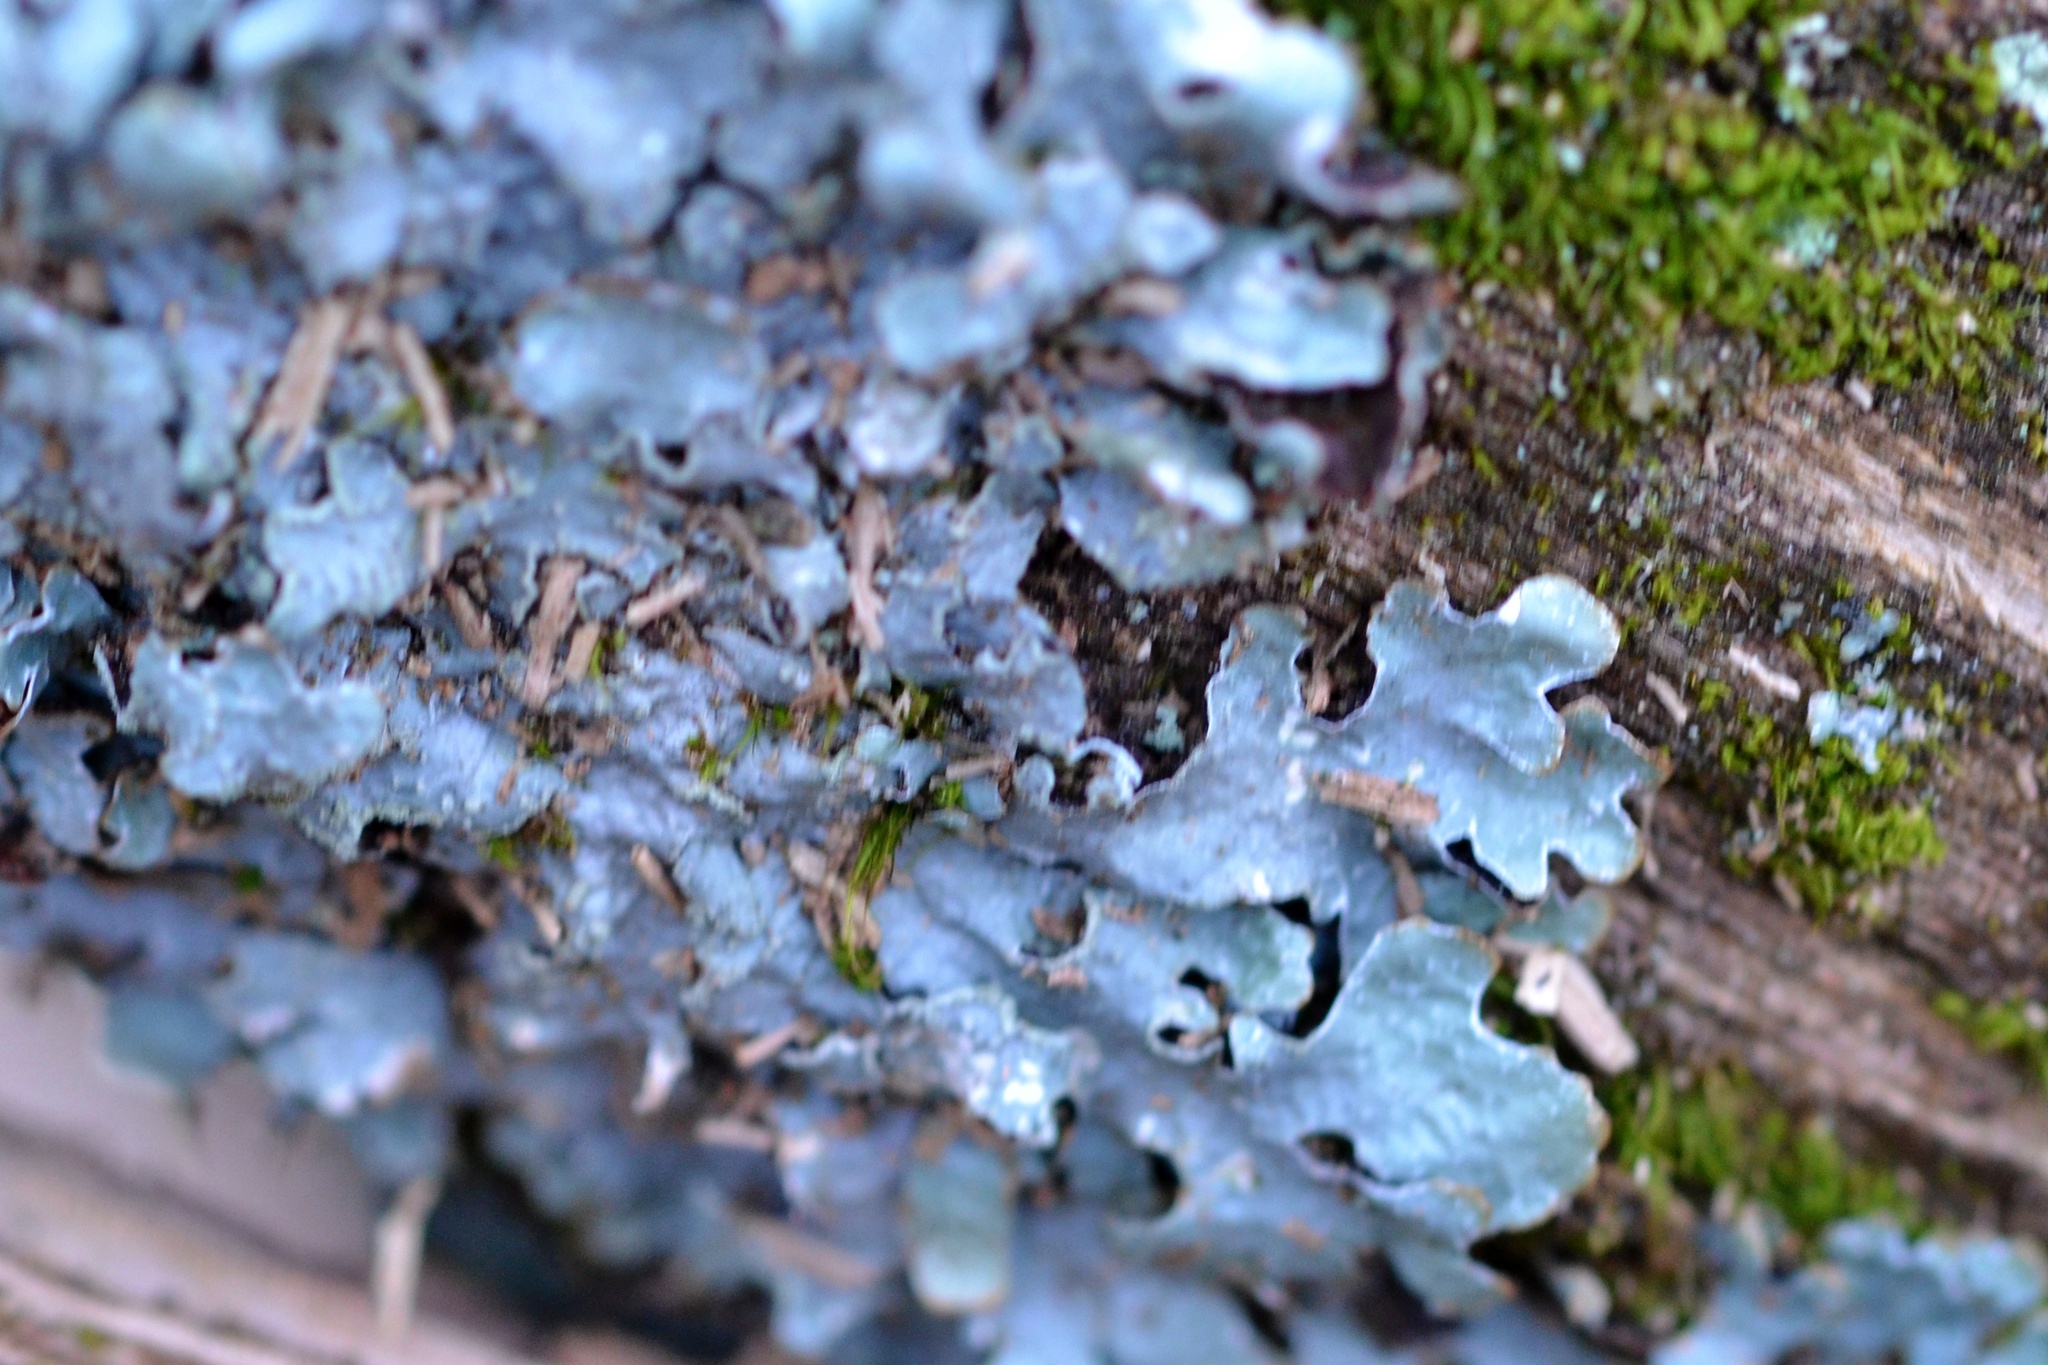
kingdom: Fungi
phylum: Ascomycota
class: Lecanoromycetes
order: Lecanorales
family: Parmeliaceae
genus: Parmelia
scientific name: Parmelia sulcata
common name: Netted shield lichen
